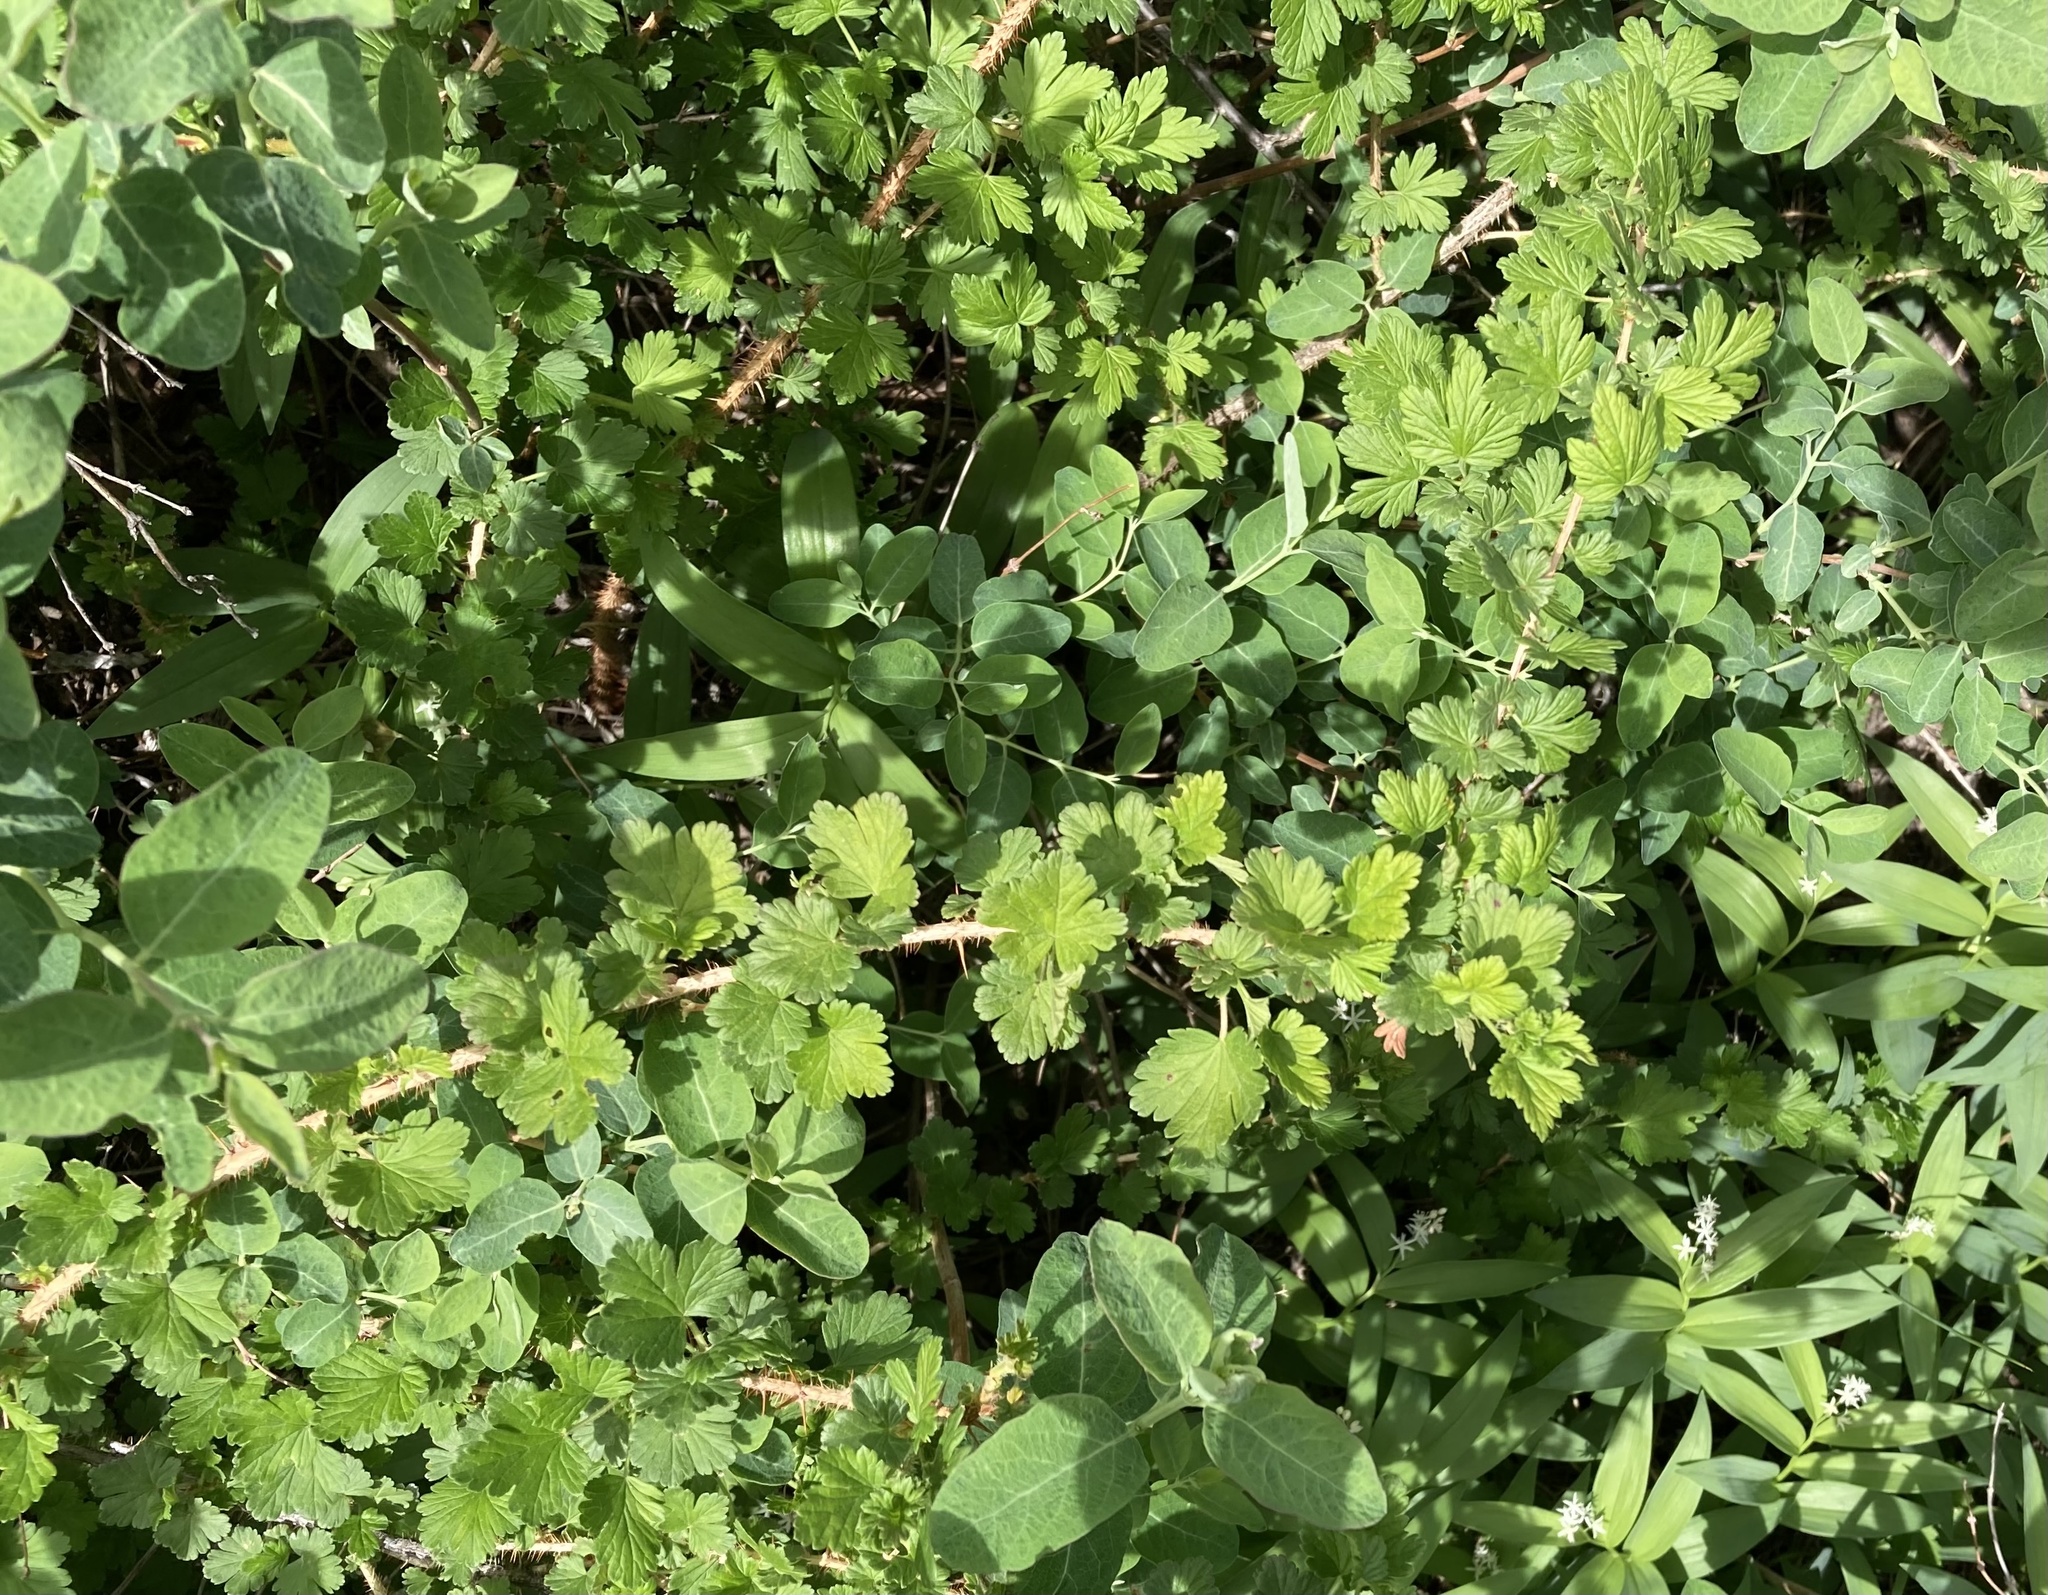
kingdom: Plantae
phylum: Tracheophyta
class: Magnoliopsida
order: Saxifragales
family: Grossulariaceae
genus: Ribes
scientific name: Ribes oxyacanthoides
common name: Northern gooseberry
